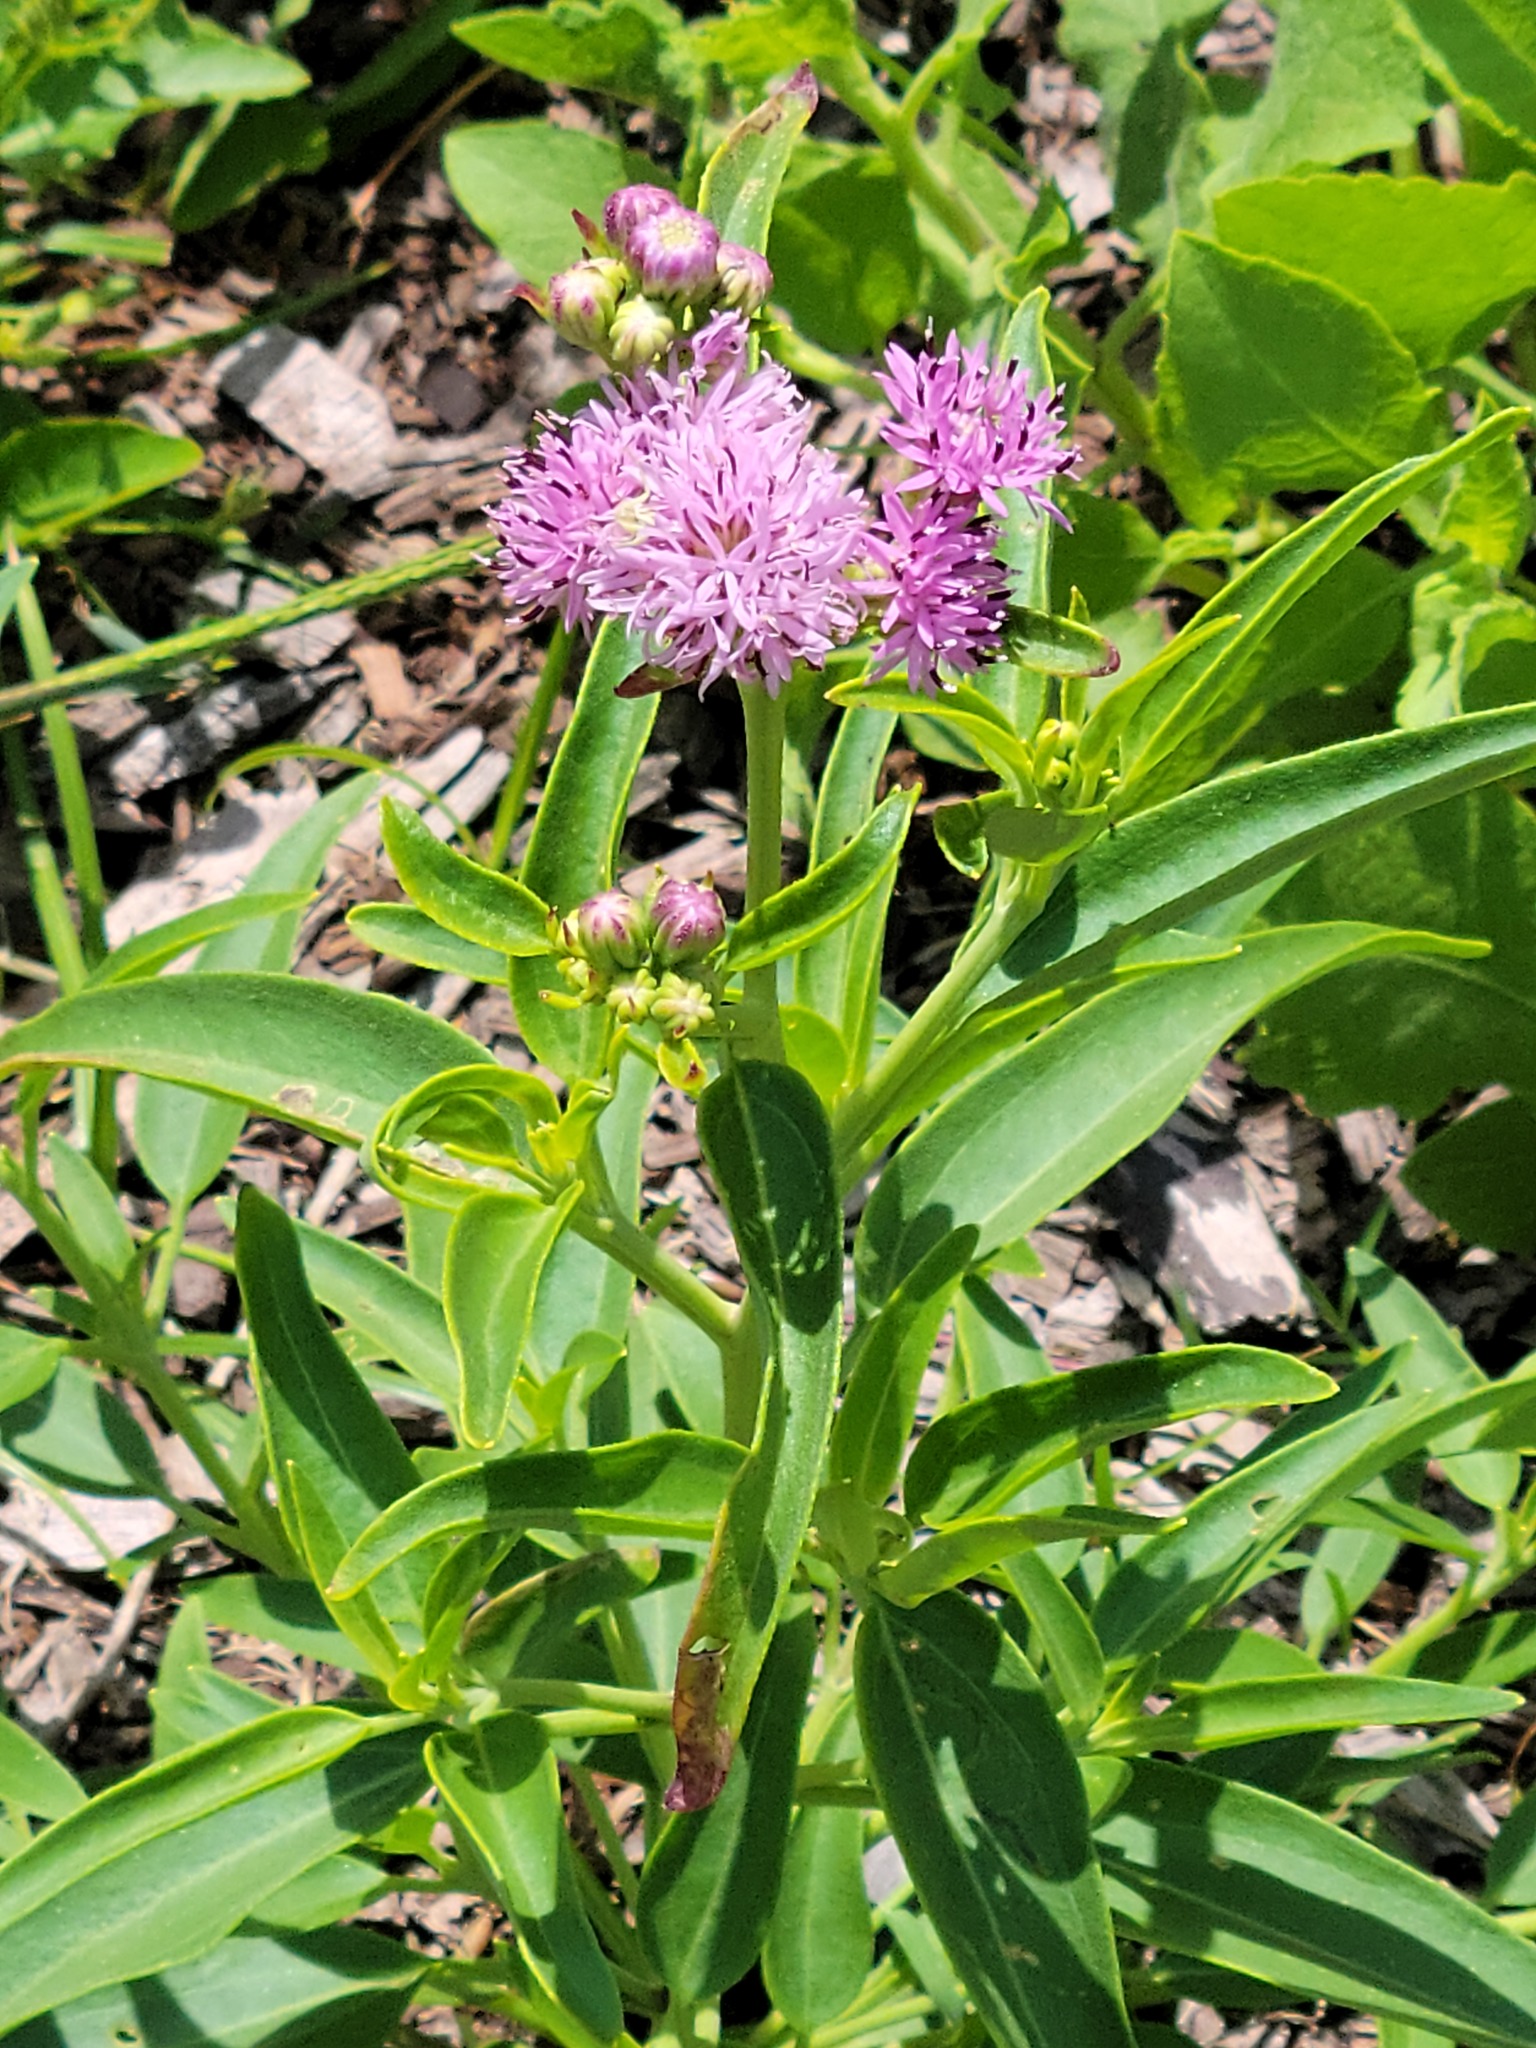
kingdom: Plantae
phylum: Tracheophyta
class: Magnoliopsida
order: Asterales
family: Asteraceae
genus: Palafoxia
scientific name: Palafoxia texana
